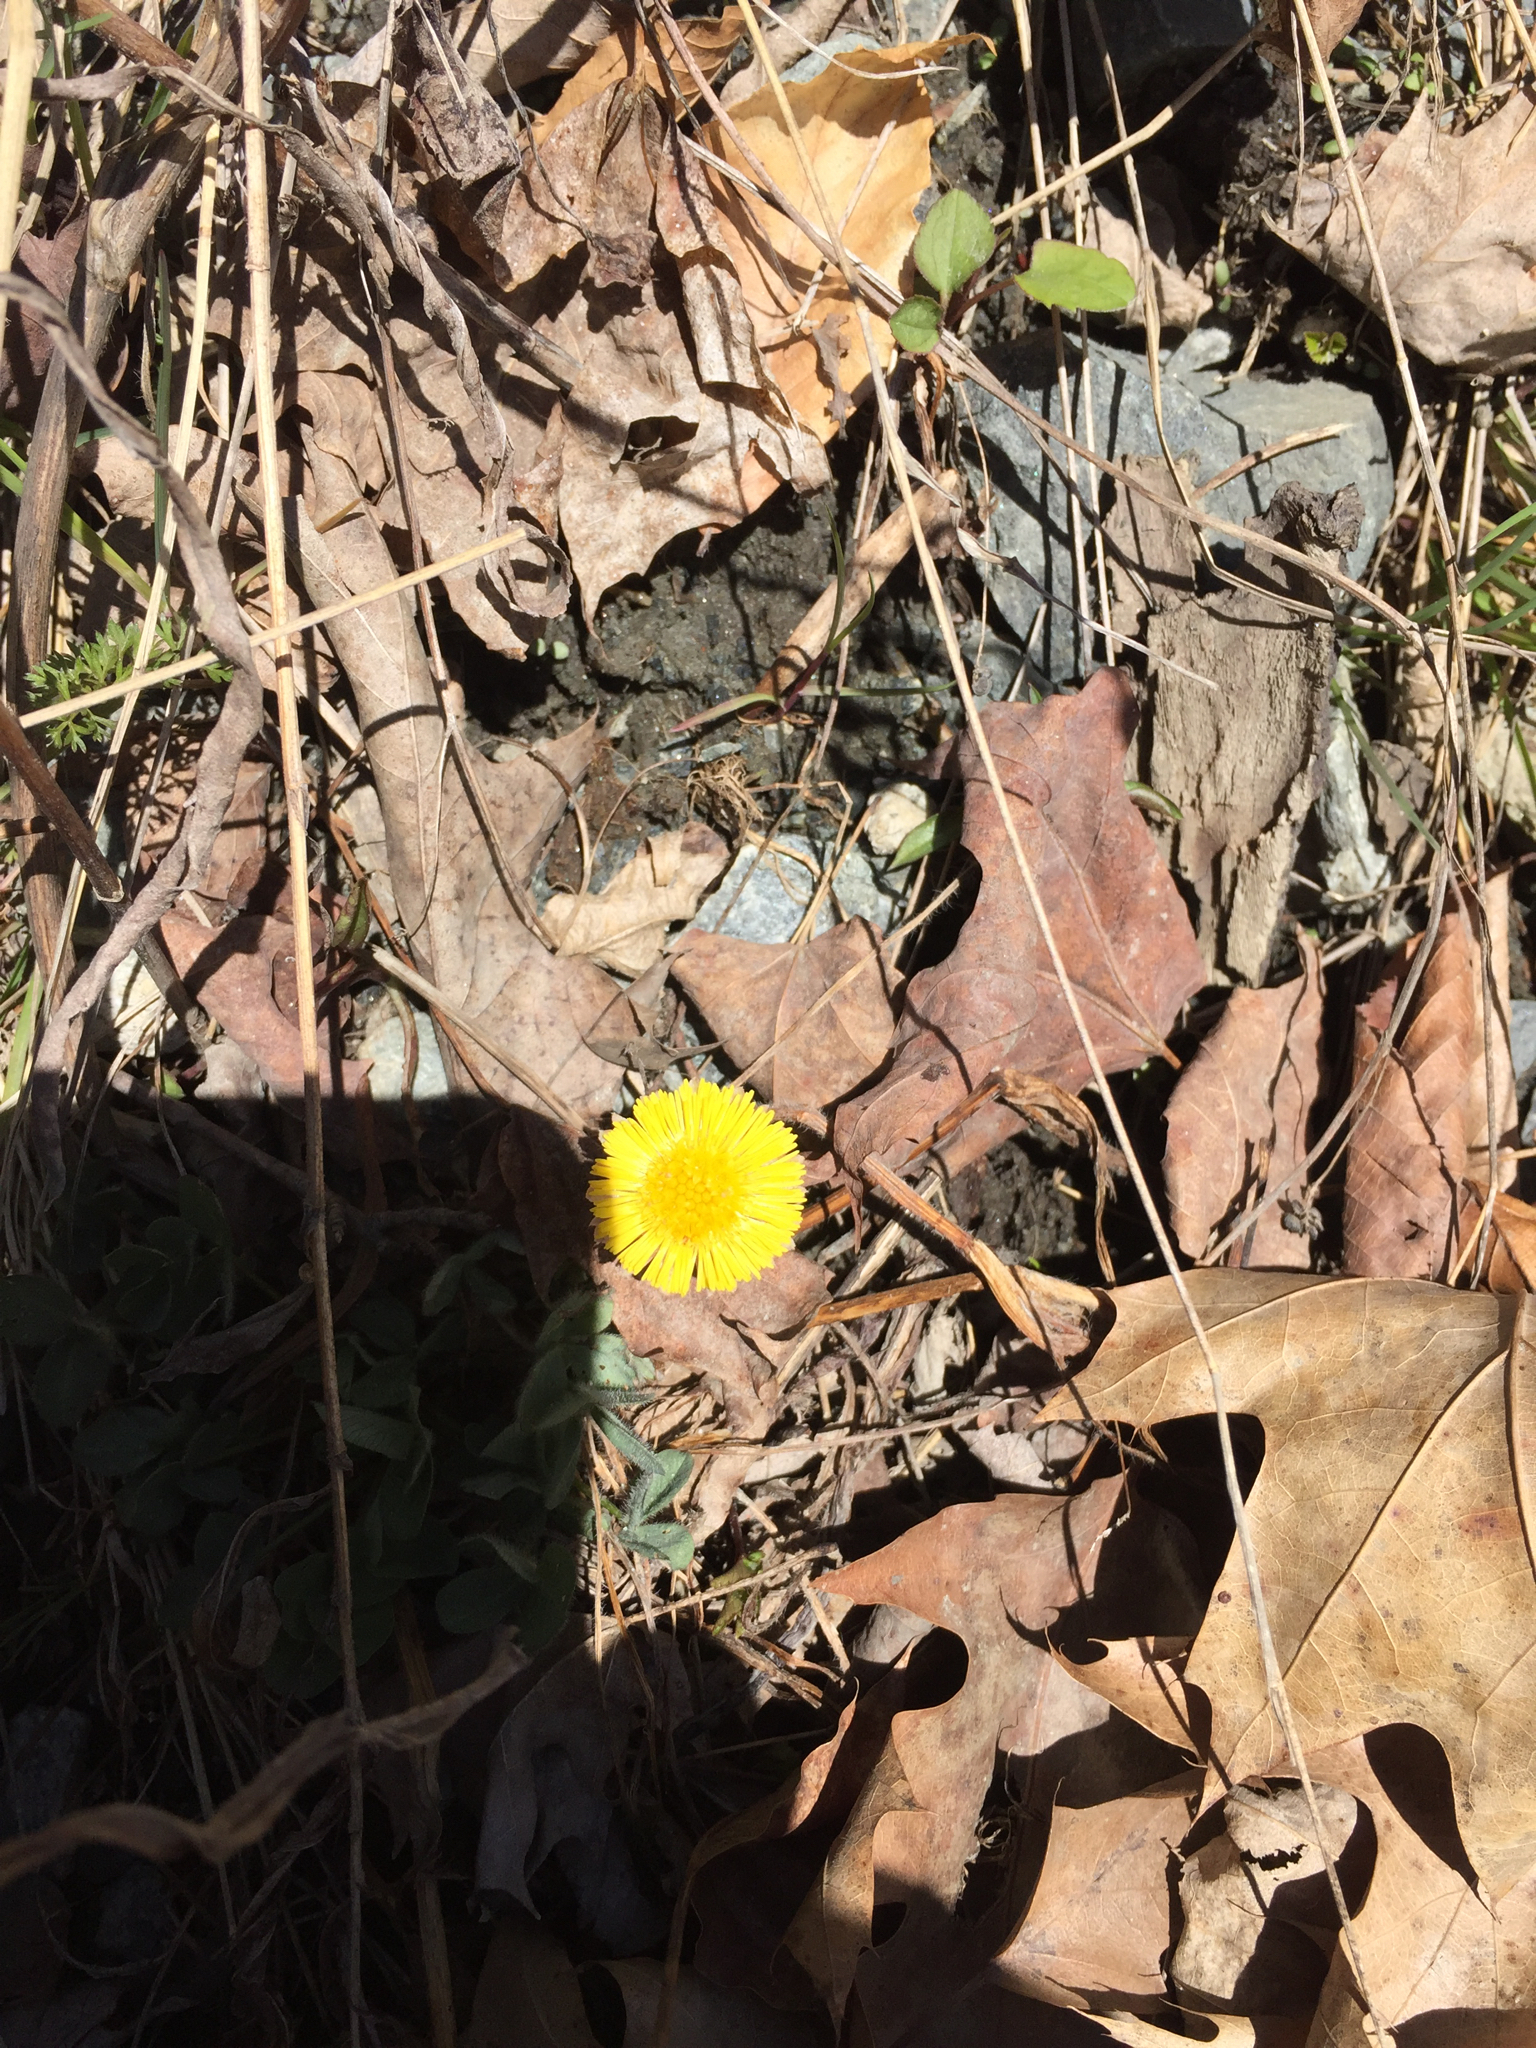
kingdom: Plantae
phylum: Tracheophyta
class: Magnoliopsida
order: Asterales
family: Asteraceae
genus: Tussilago
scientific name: Tussilago farfara
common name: Coltsfoot
